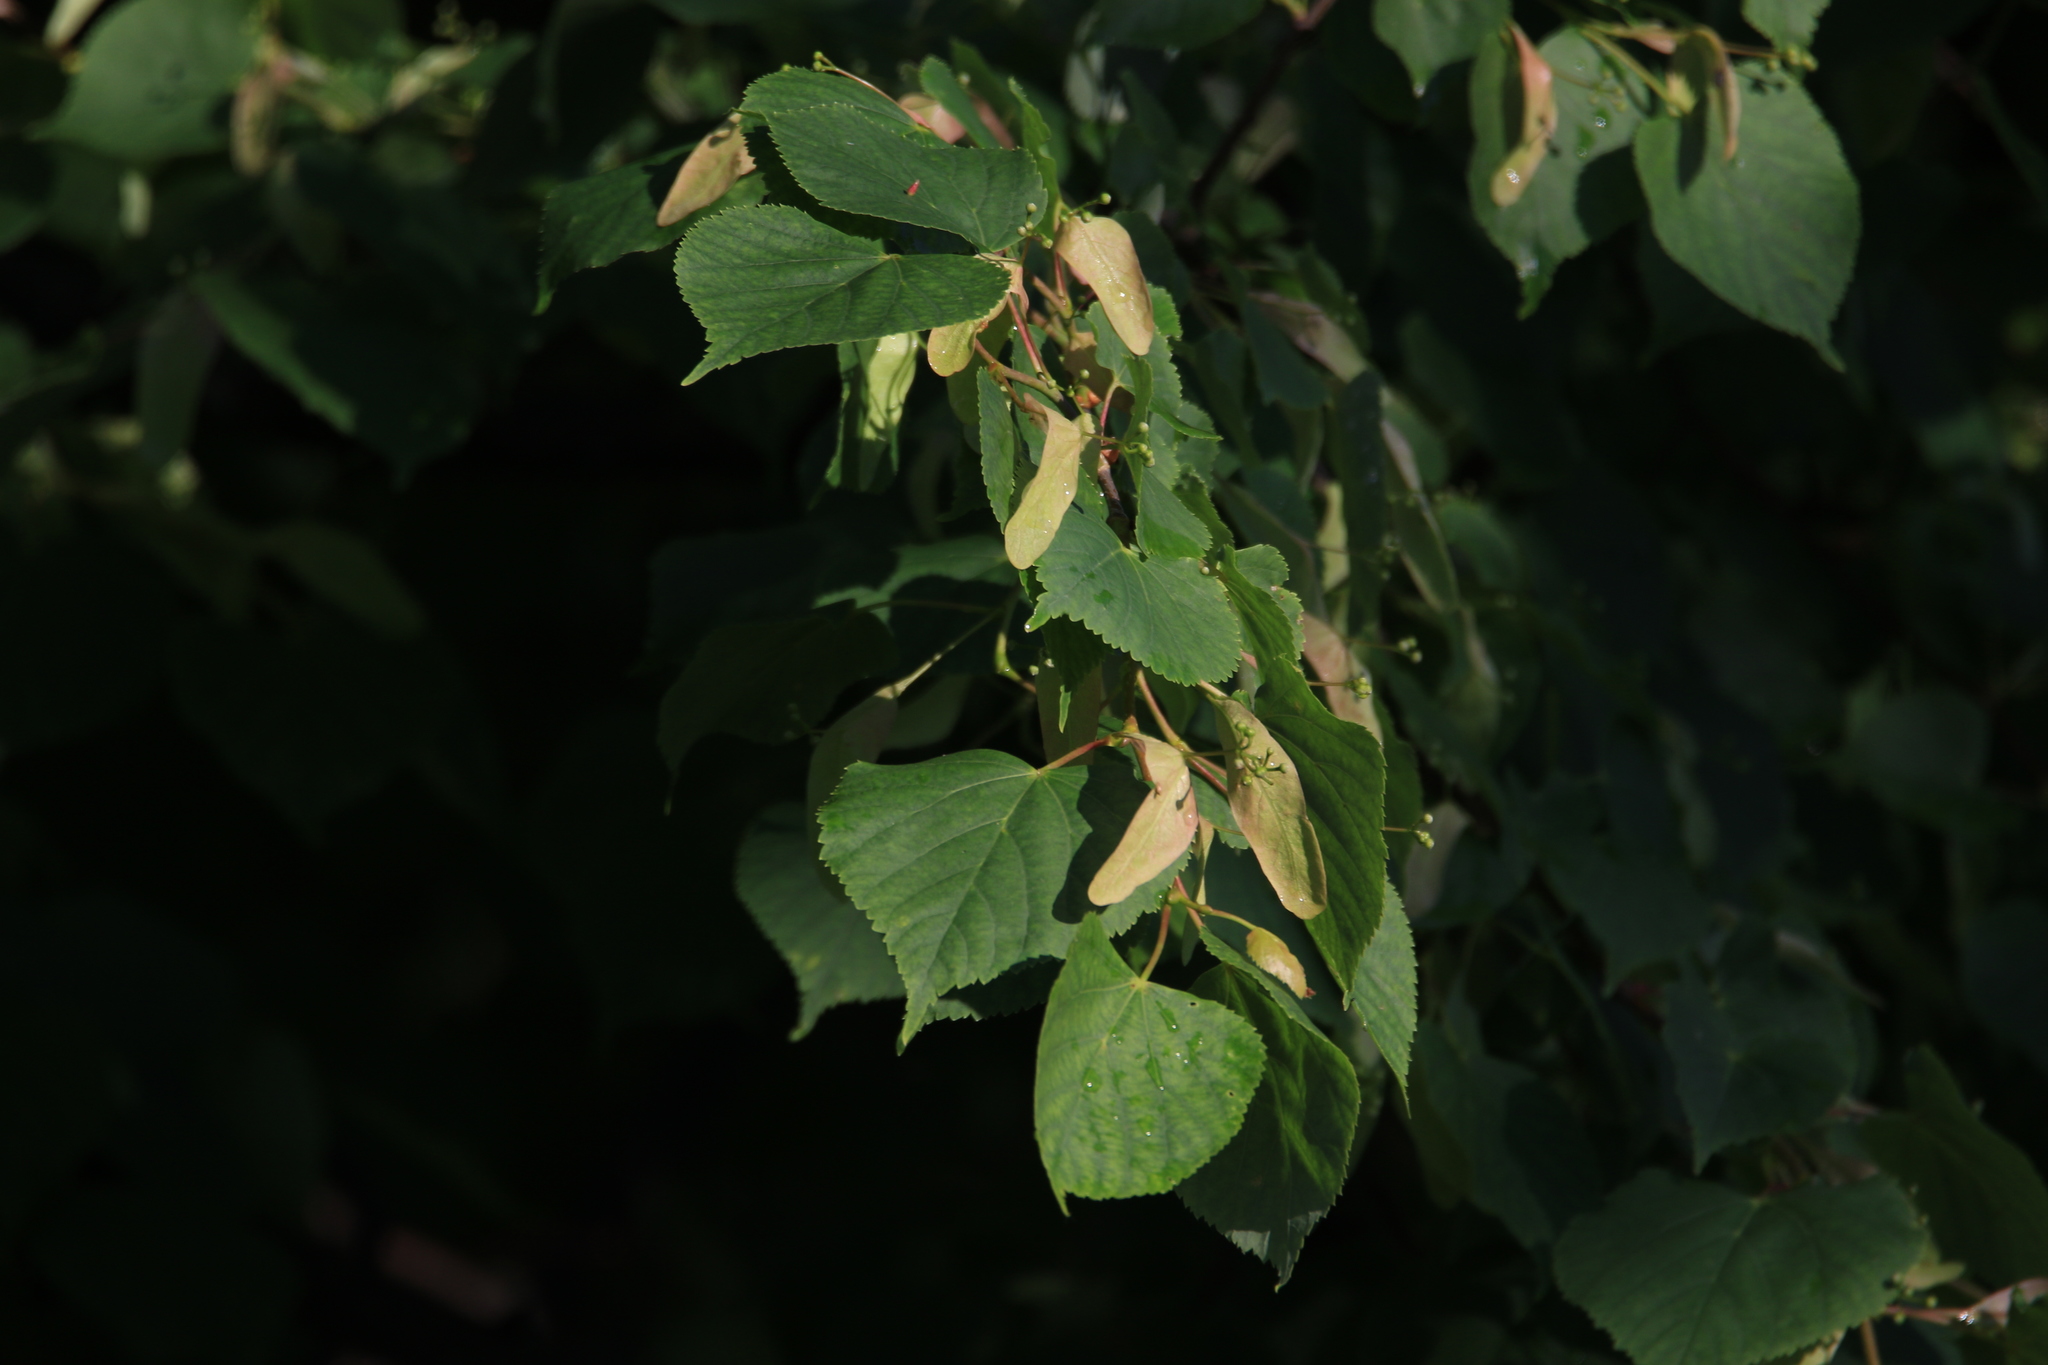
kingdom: Plantae
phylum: Tracheophyta
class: Magnoliopsida
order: Malvales
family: Malvaceae
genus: Tilia
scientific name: Tilia cordata
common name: Small-leaved lime
